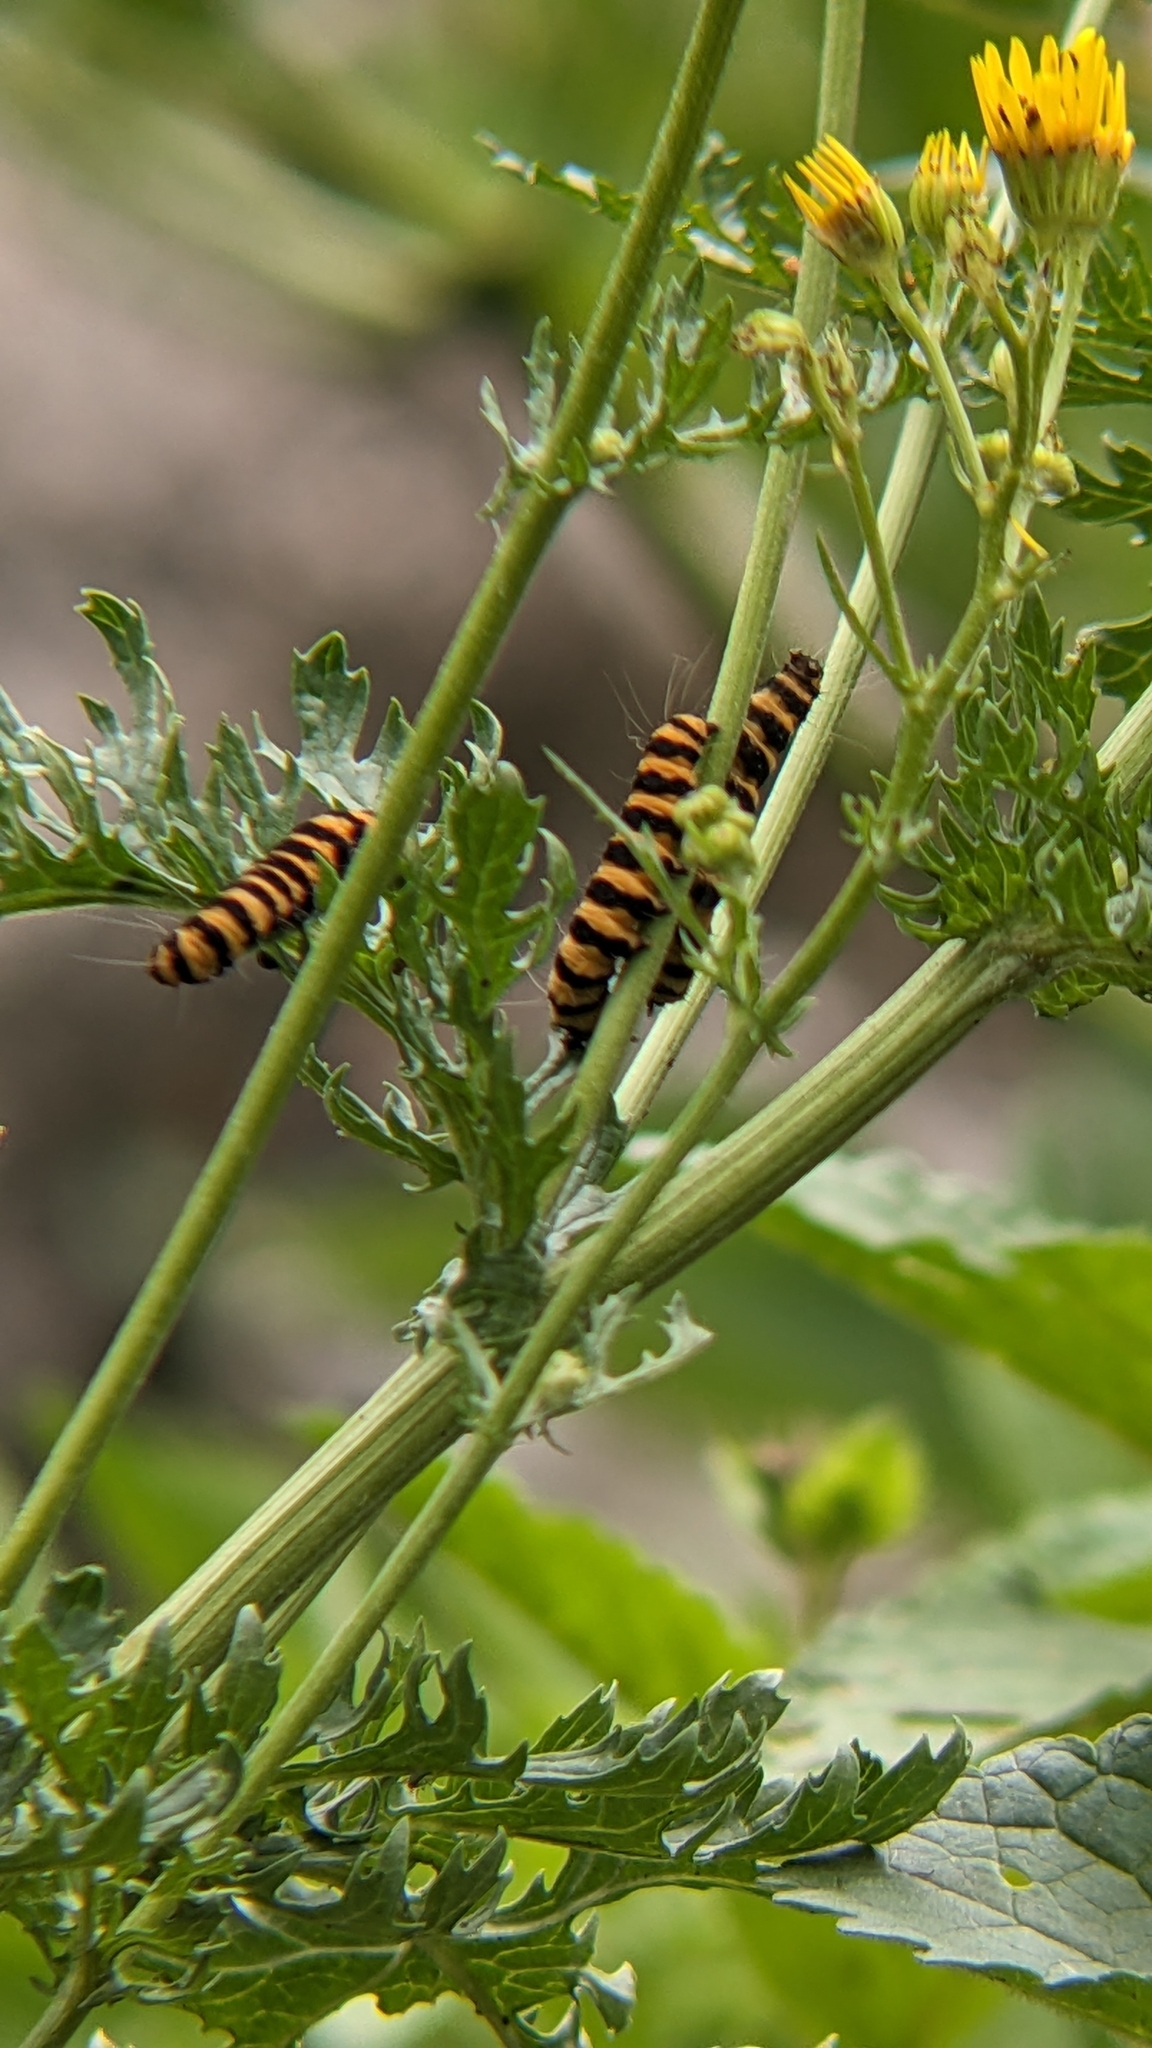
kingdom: Animalia
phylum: Arthropoda
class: Insecta
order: Lepidoptera
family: Erebidae
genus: Tyria
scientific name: Tyria jacobaeae
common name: Cinnabar
